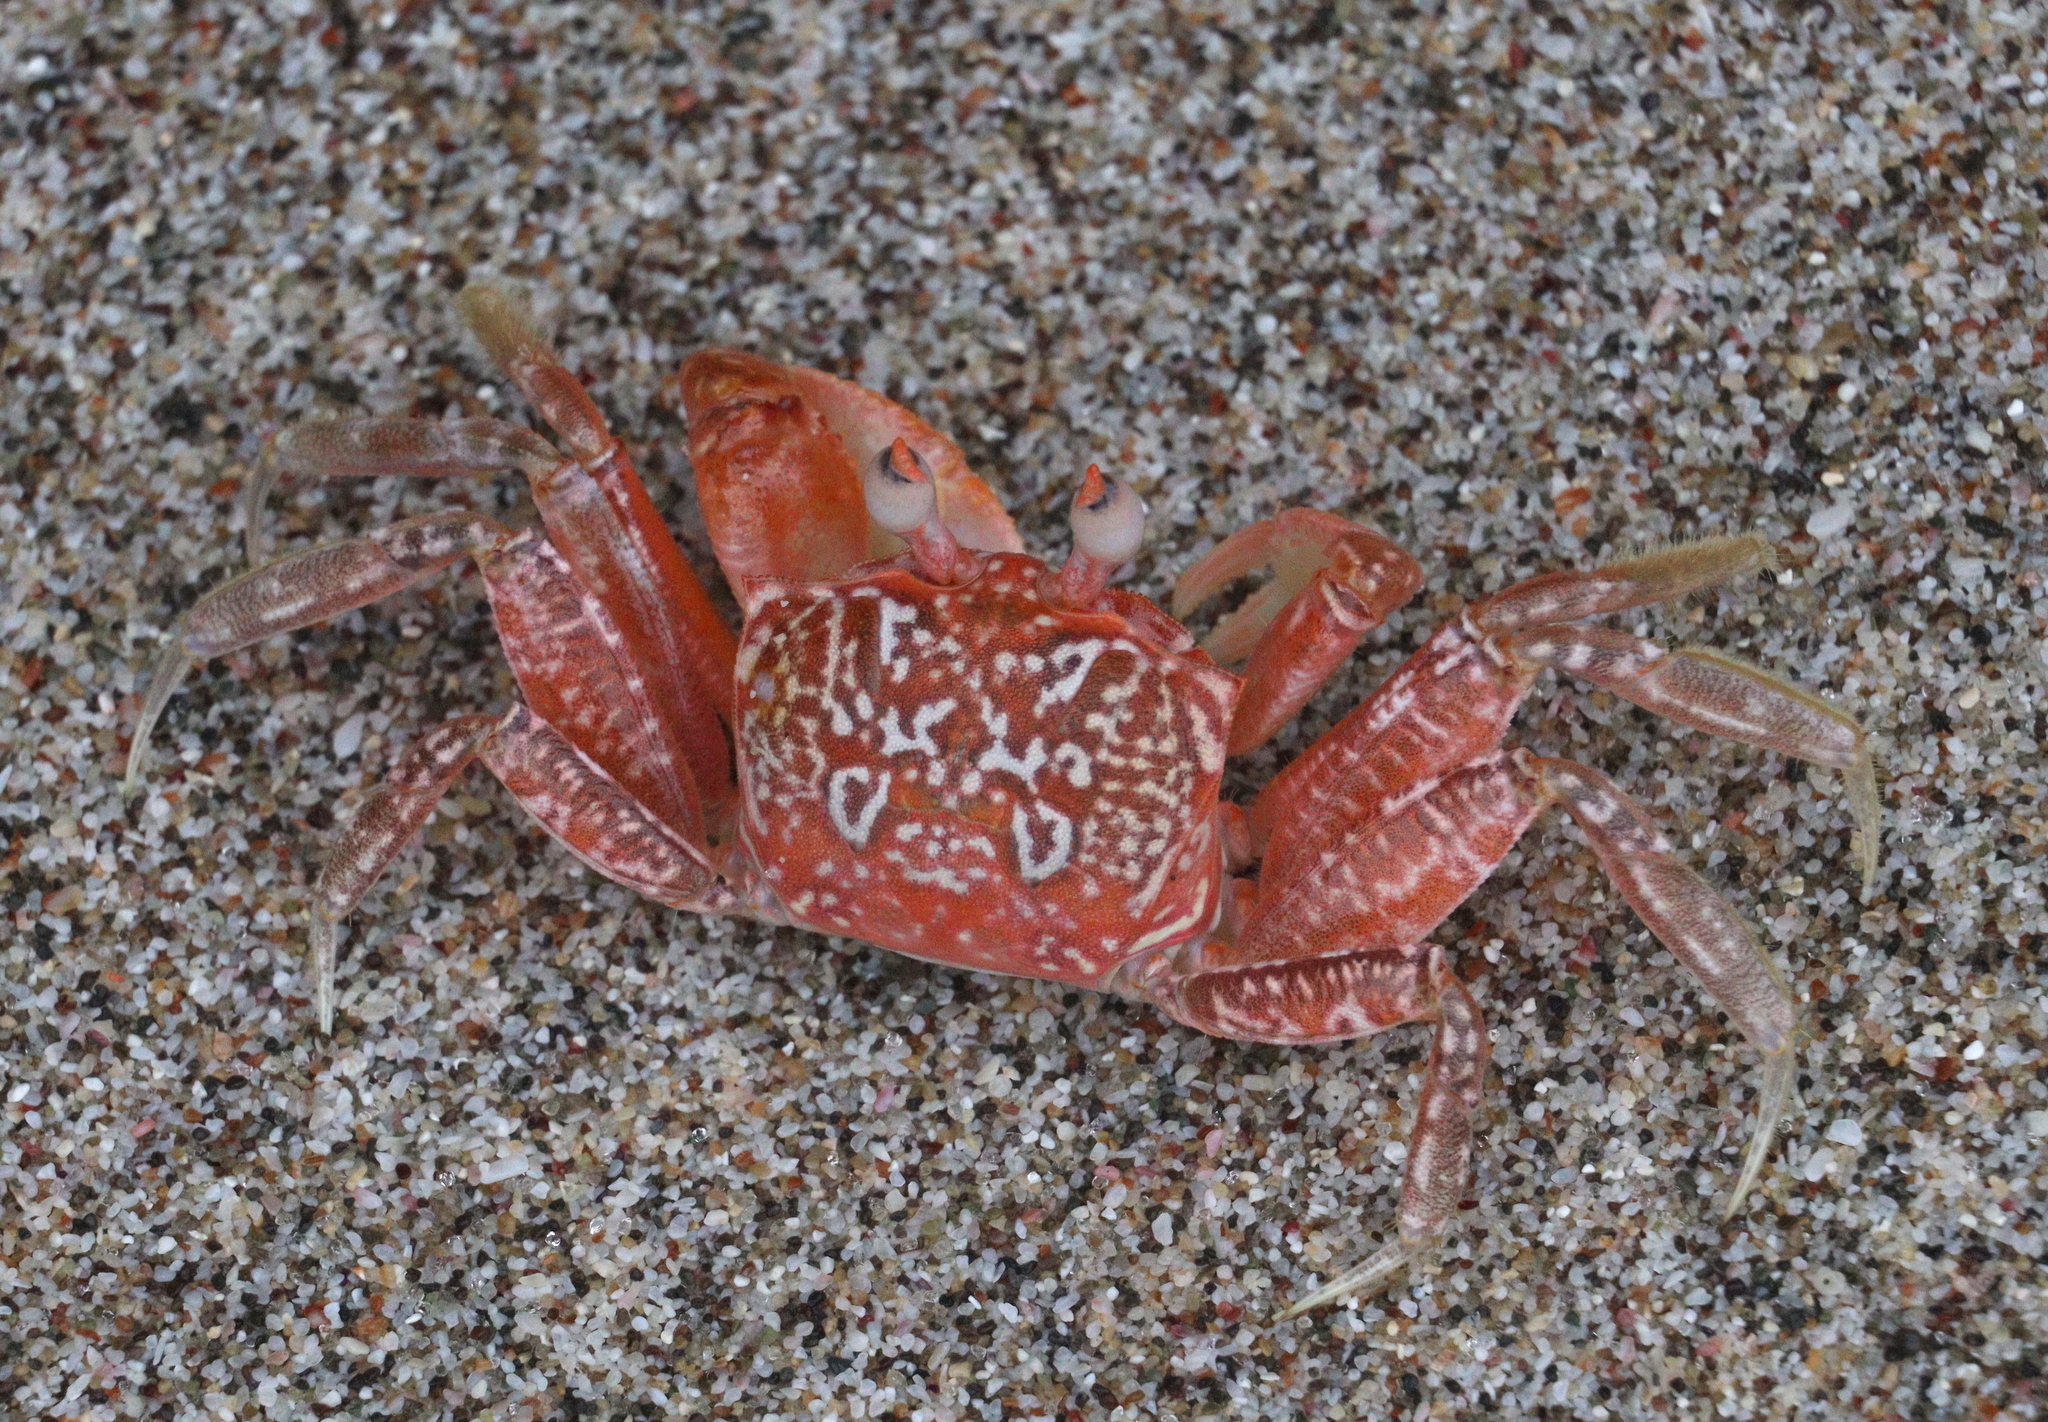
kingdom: Animalia
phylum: Arthropoda
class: Malacostraca
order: Decapoda
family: Ocypodidae
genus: Ocypode
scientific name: Ocypode gaudichaudii
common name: Pacific ghost crab
